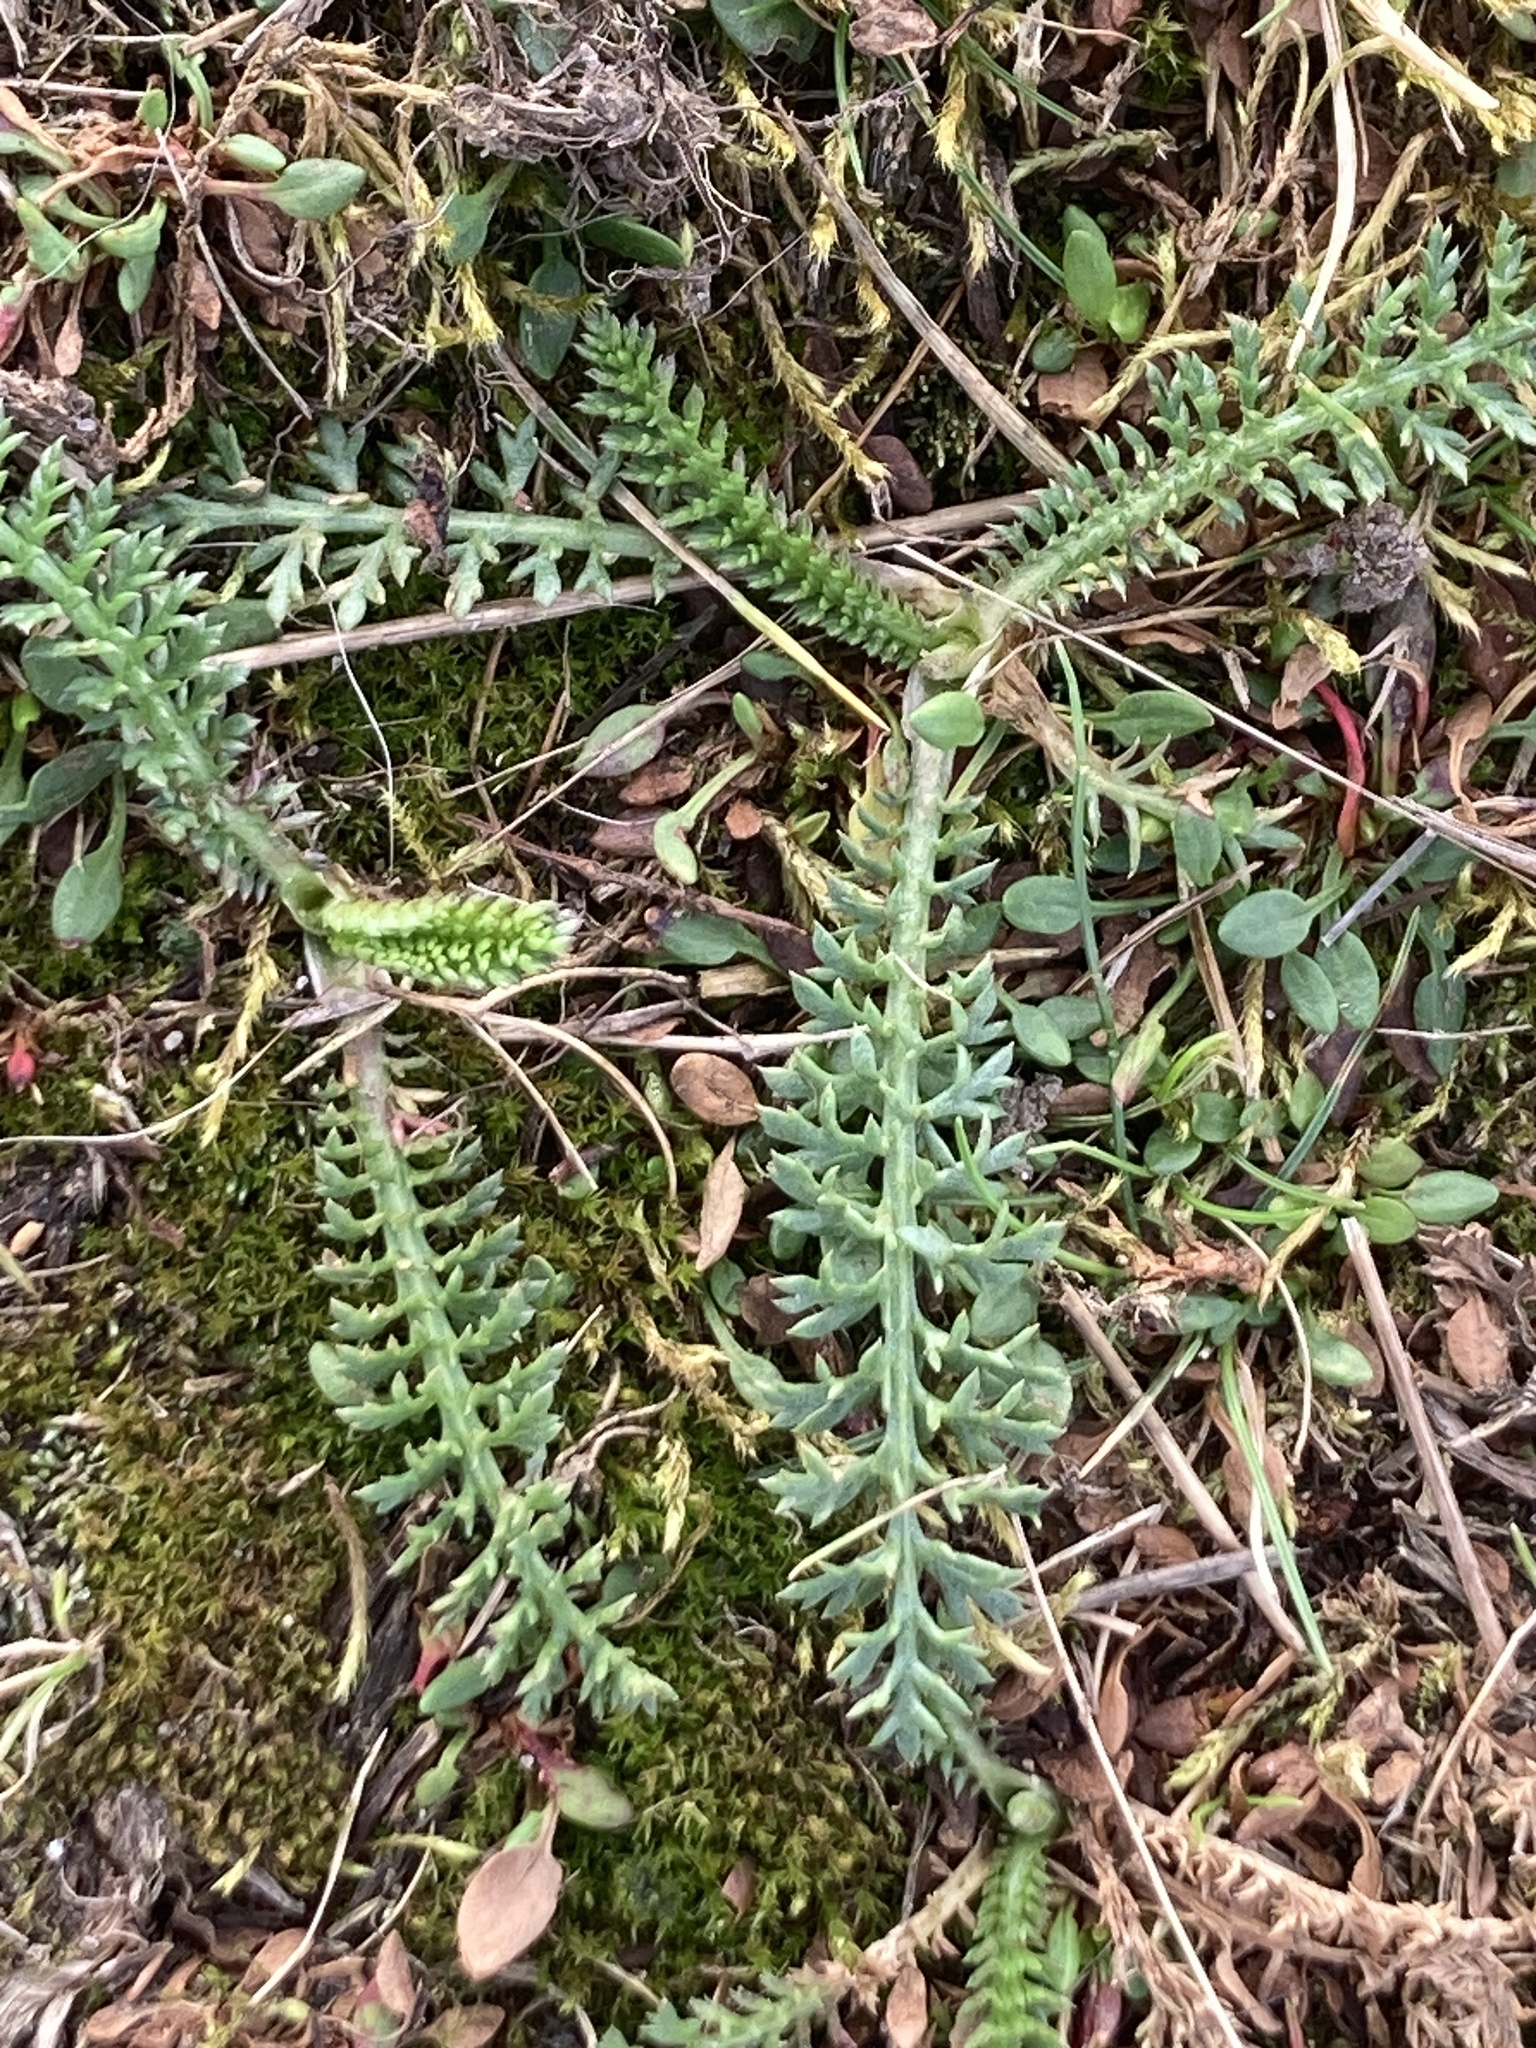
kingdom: Plantae
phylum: Tracheophyta
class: Magnoliopsida
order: Asterales
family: Asteraceae
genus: Achillea
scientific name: Achillea millefolium
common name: Yarrow
